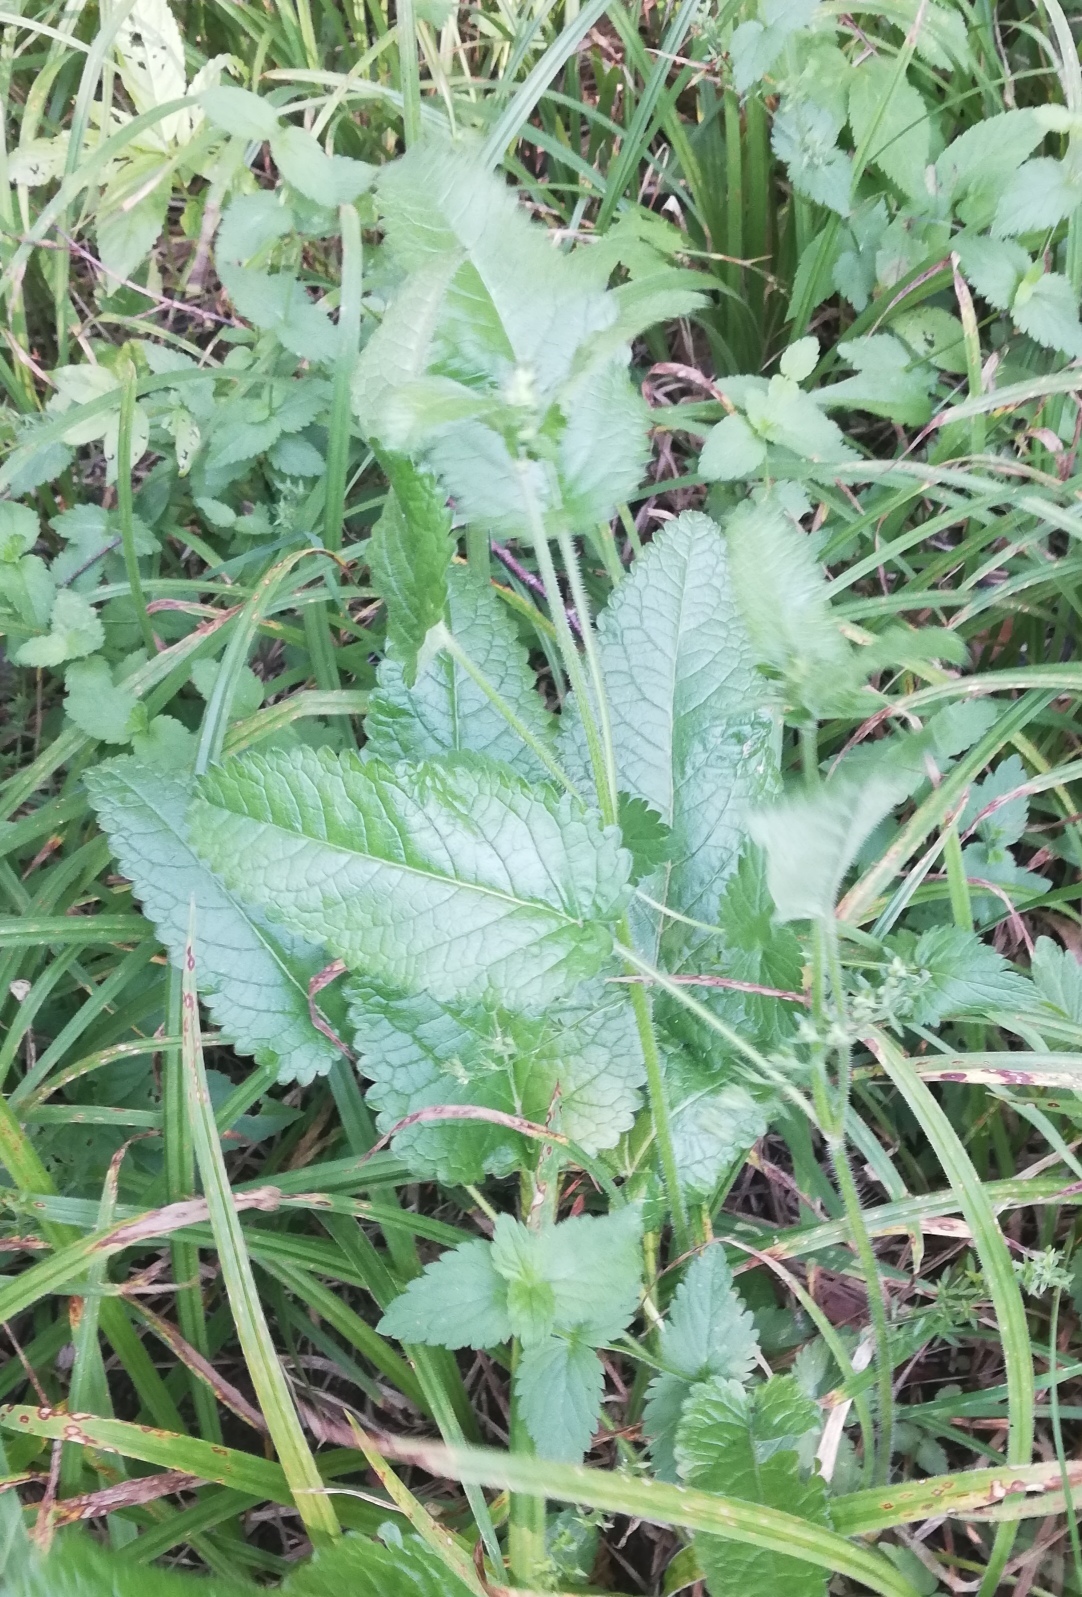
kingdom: Plantae
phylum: Tracheophyta
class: Magnoliopsida
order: Lamiales
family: Lamiaceae
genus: Betonica
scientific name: Betonica officinalis
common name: Bishop's-wort
